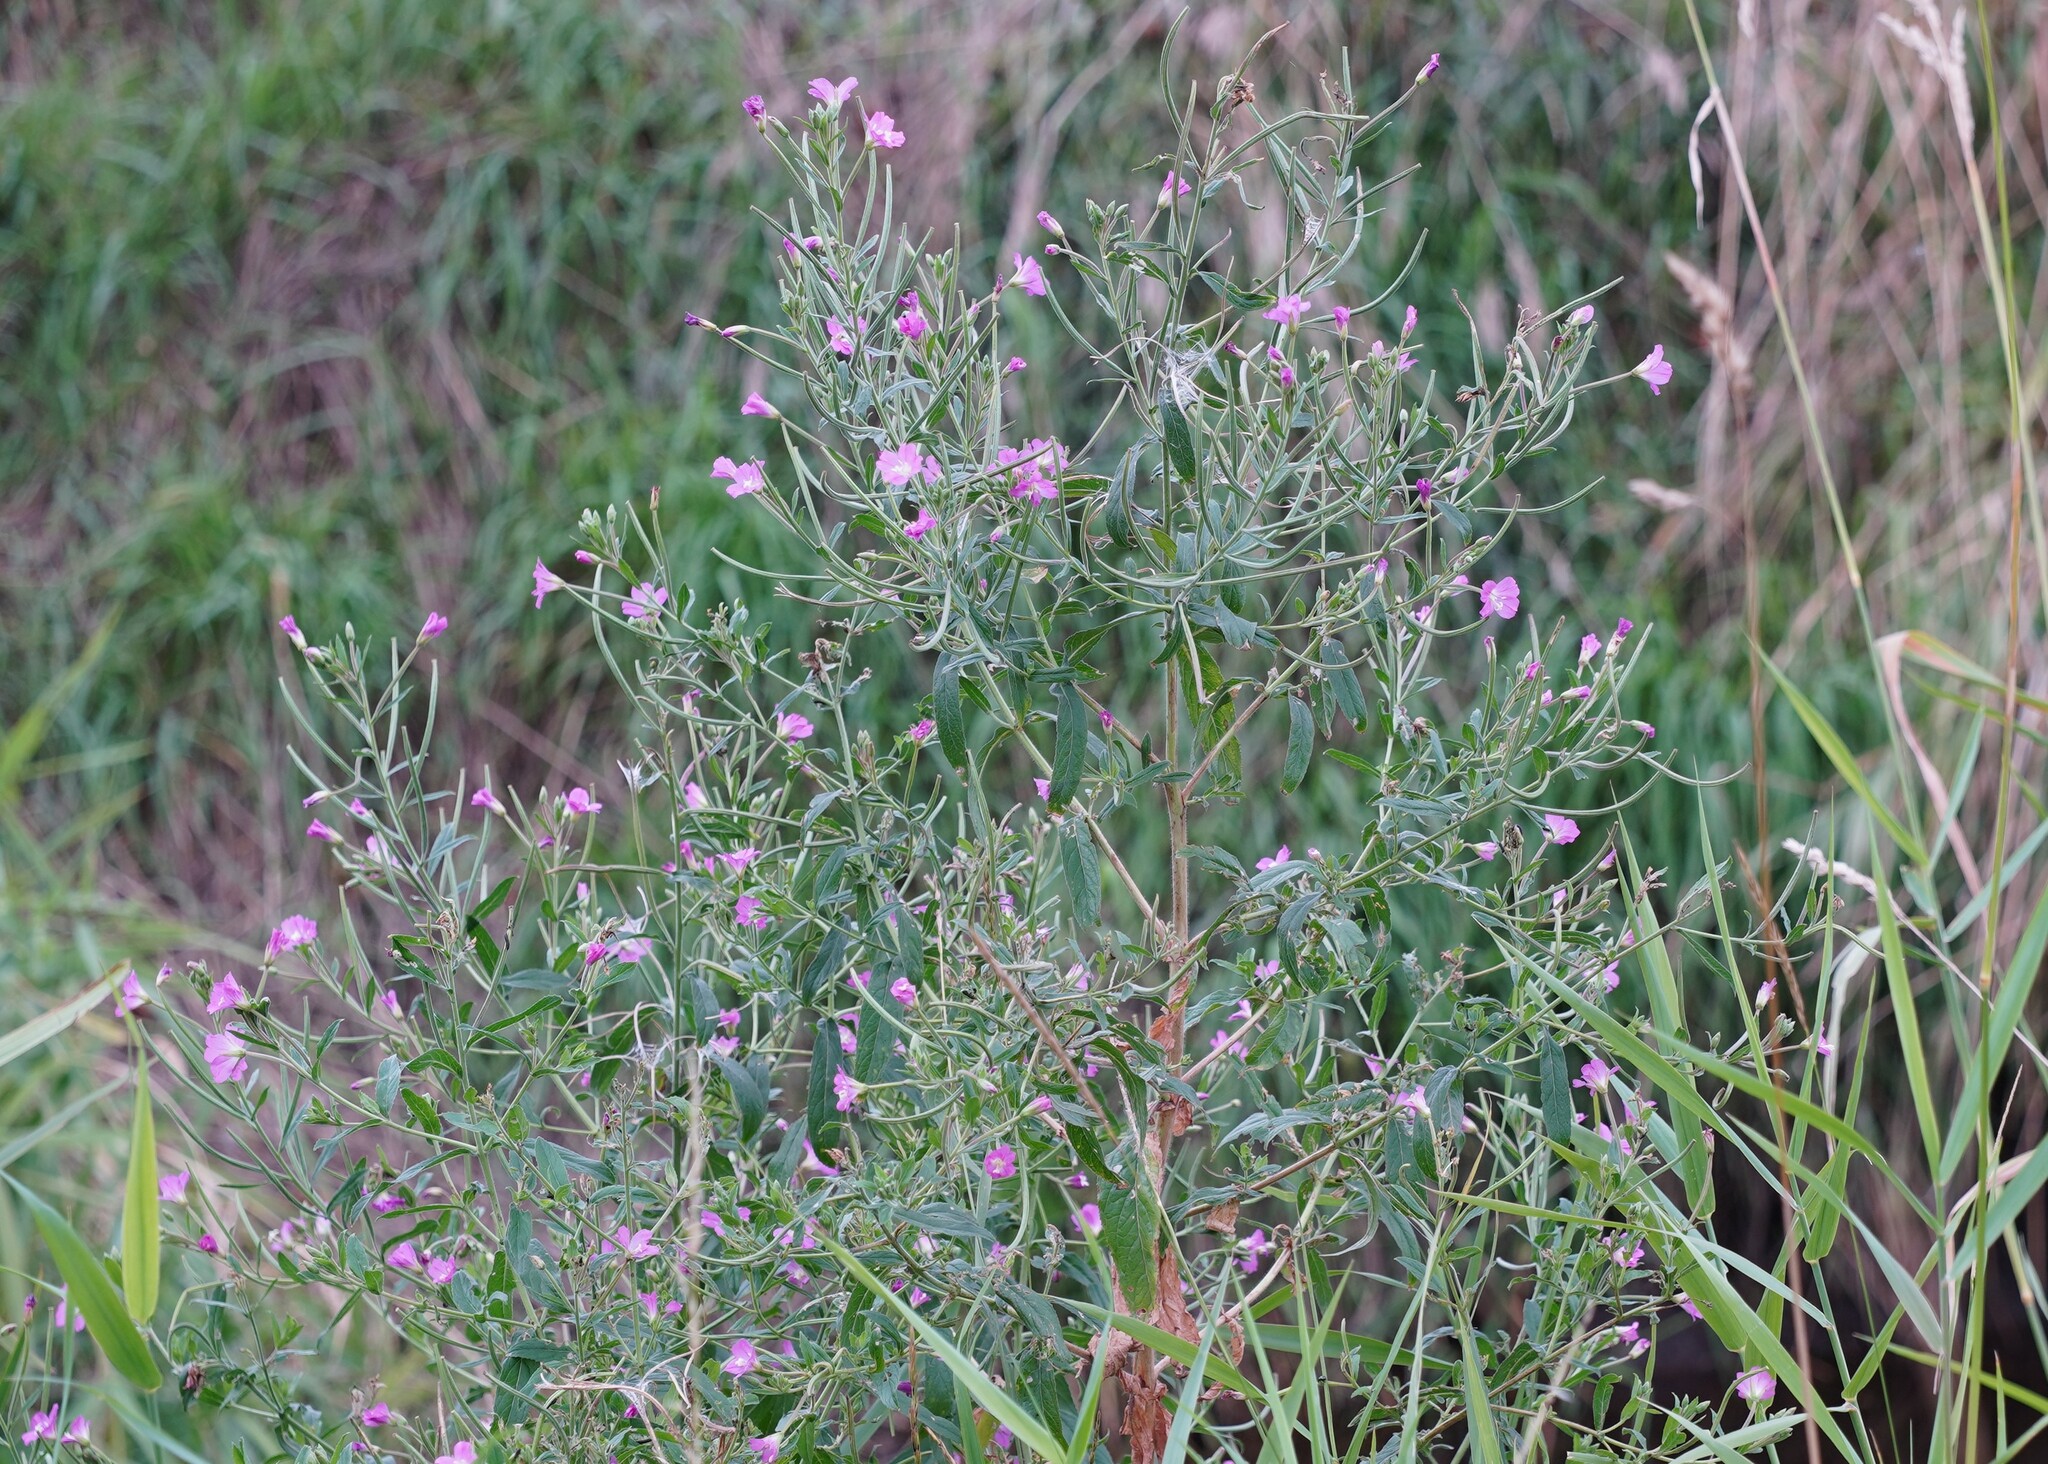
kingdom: Plantae
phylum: Tracheophyta
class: Magnoliopsida
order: Myrtales
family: Onagraceae
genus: Epilobium
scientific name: Epilobium hirsutum
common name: Great willowherb
